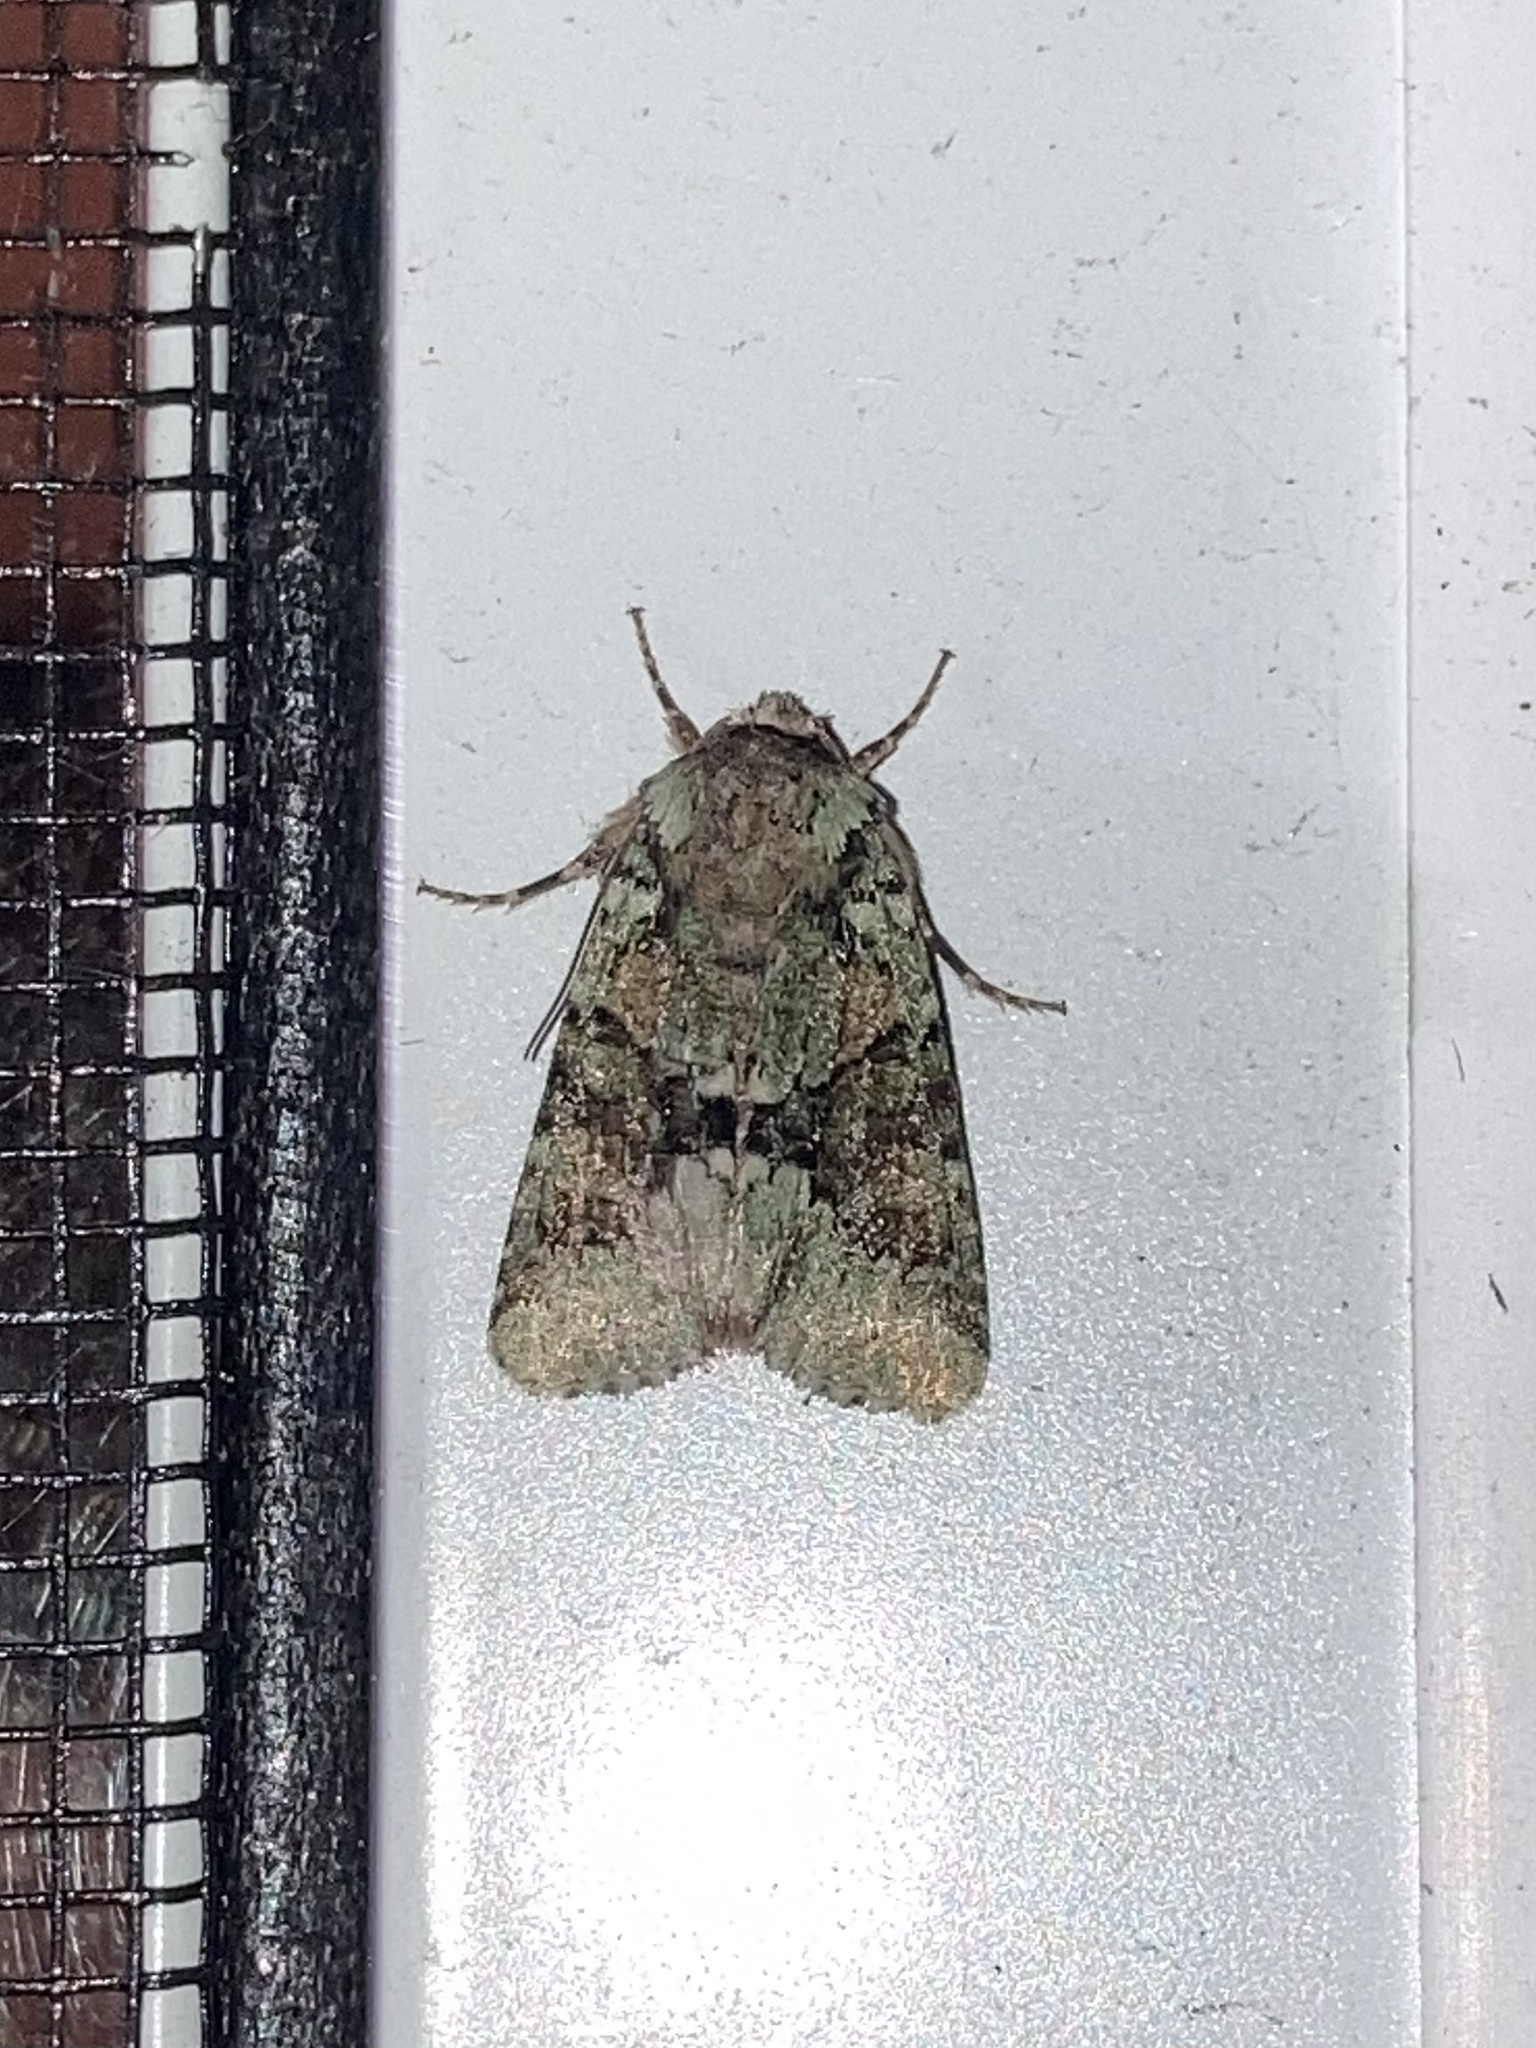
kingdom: Animalia
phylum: Arthropoda
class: Insecta
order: Lepidoptera
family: Noctuidae
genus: Lacinipolia
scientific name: Lacinipolia explicata
